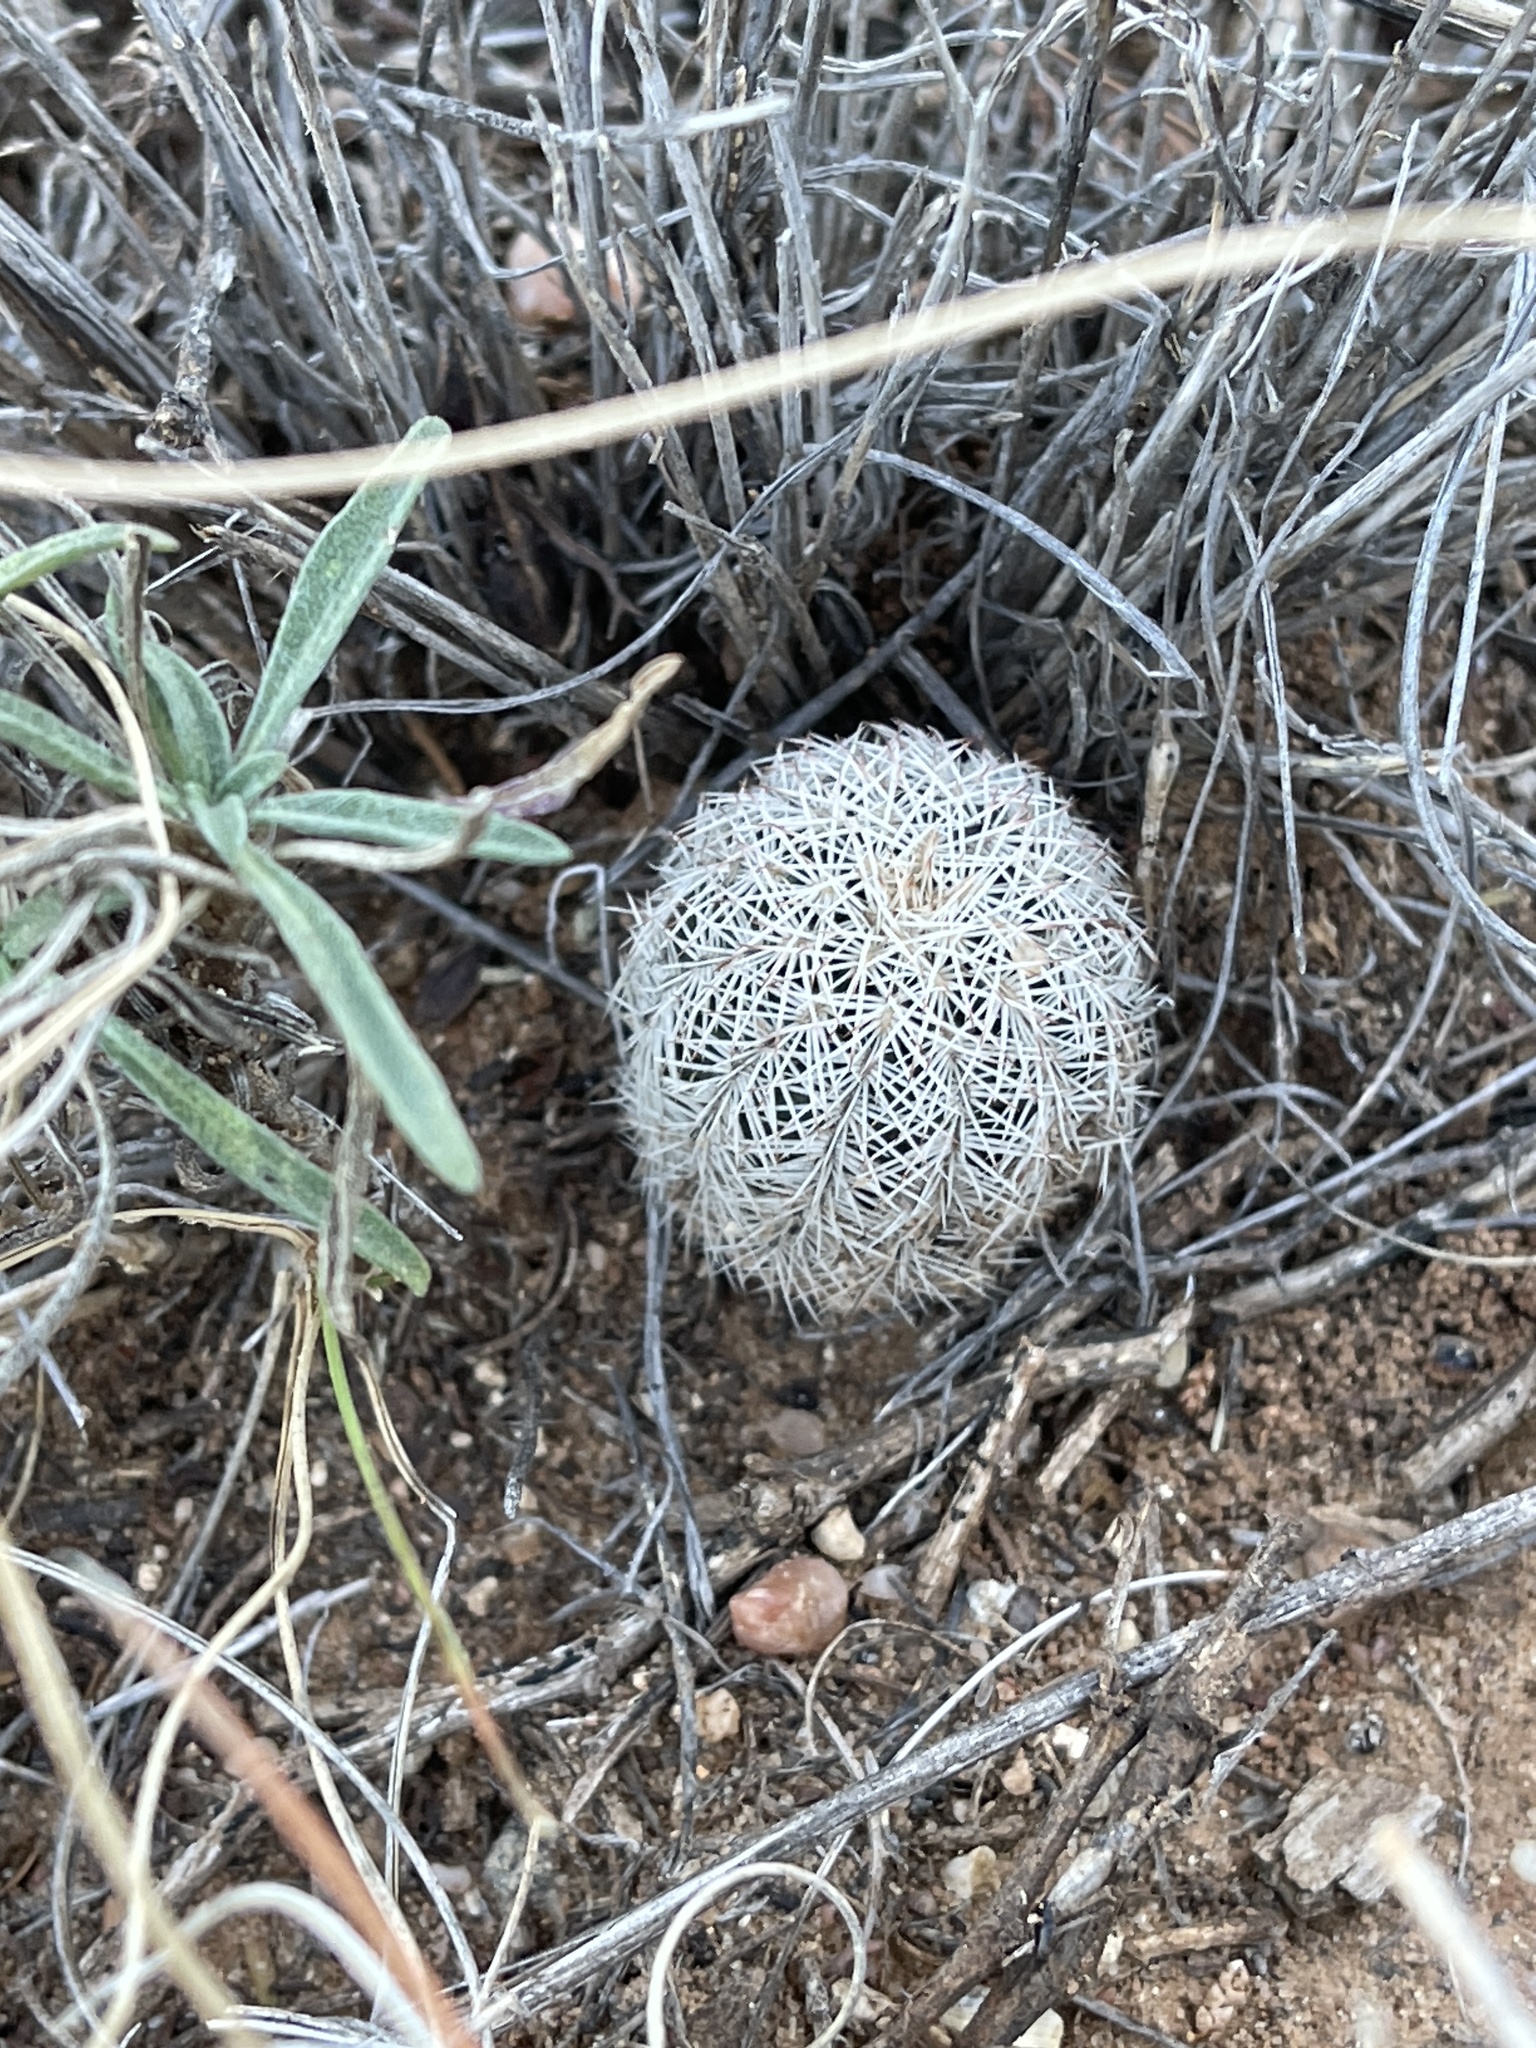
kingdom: Plantae
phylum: Tracheophyta
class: Magnoliopsida
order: Caryophyllales
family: Cactaceae
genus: Echinocereus
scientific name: Echinocereus reichenbachii
